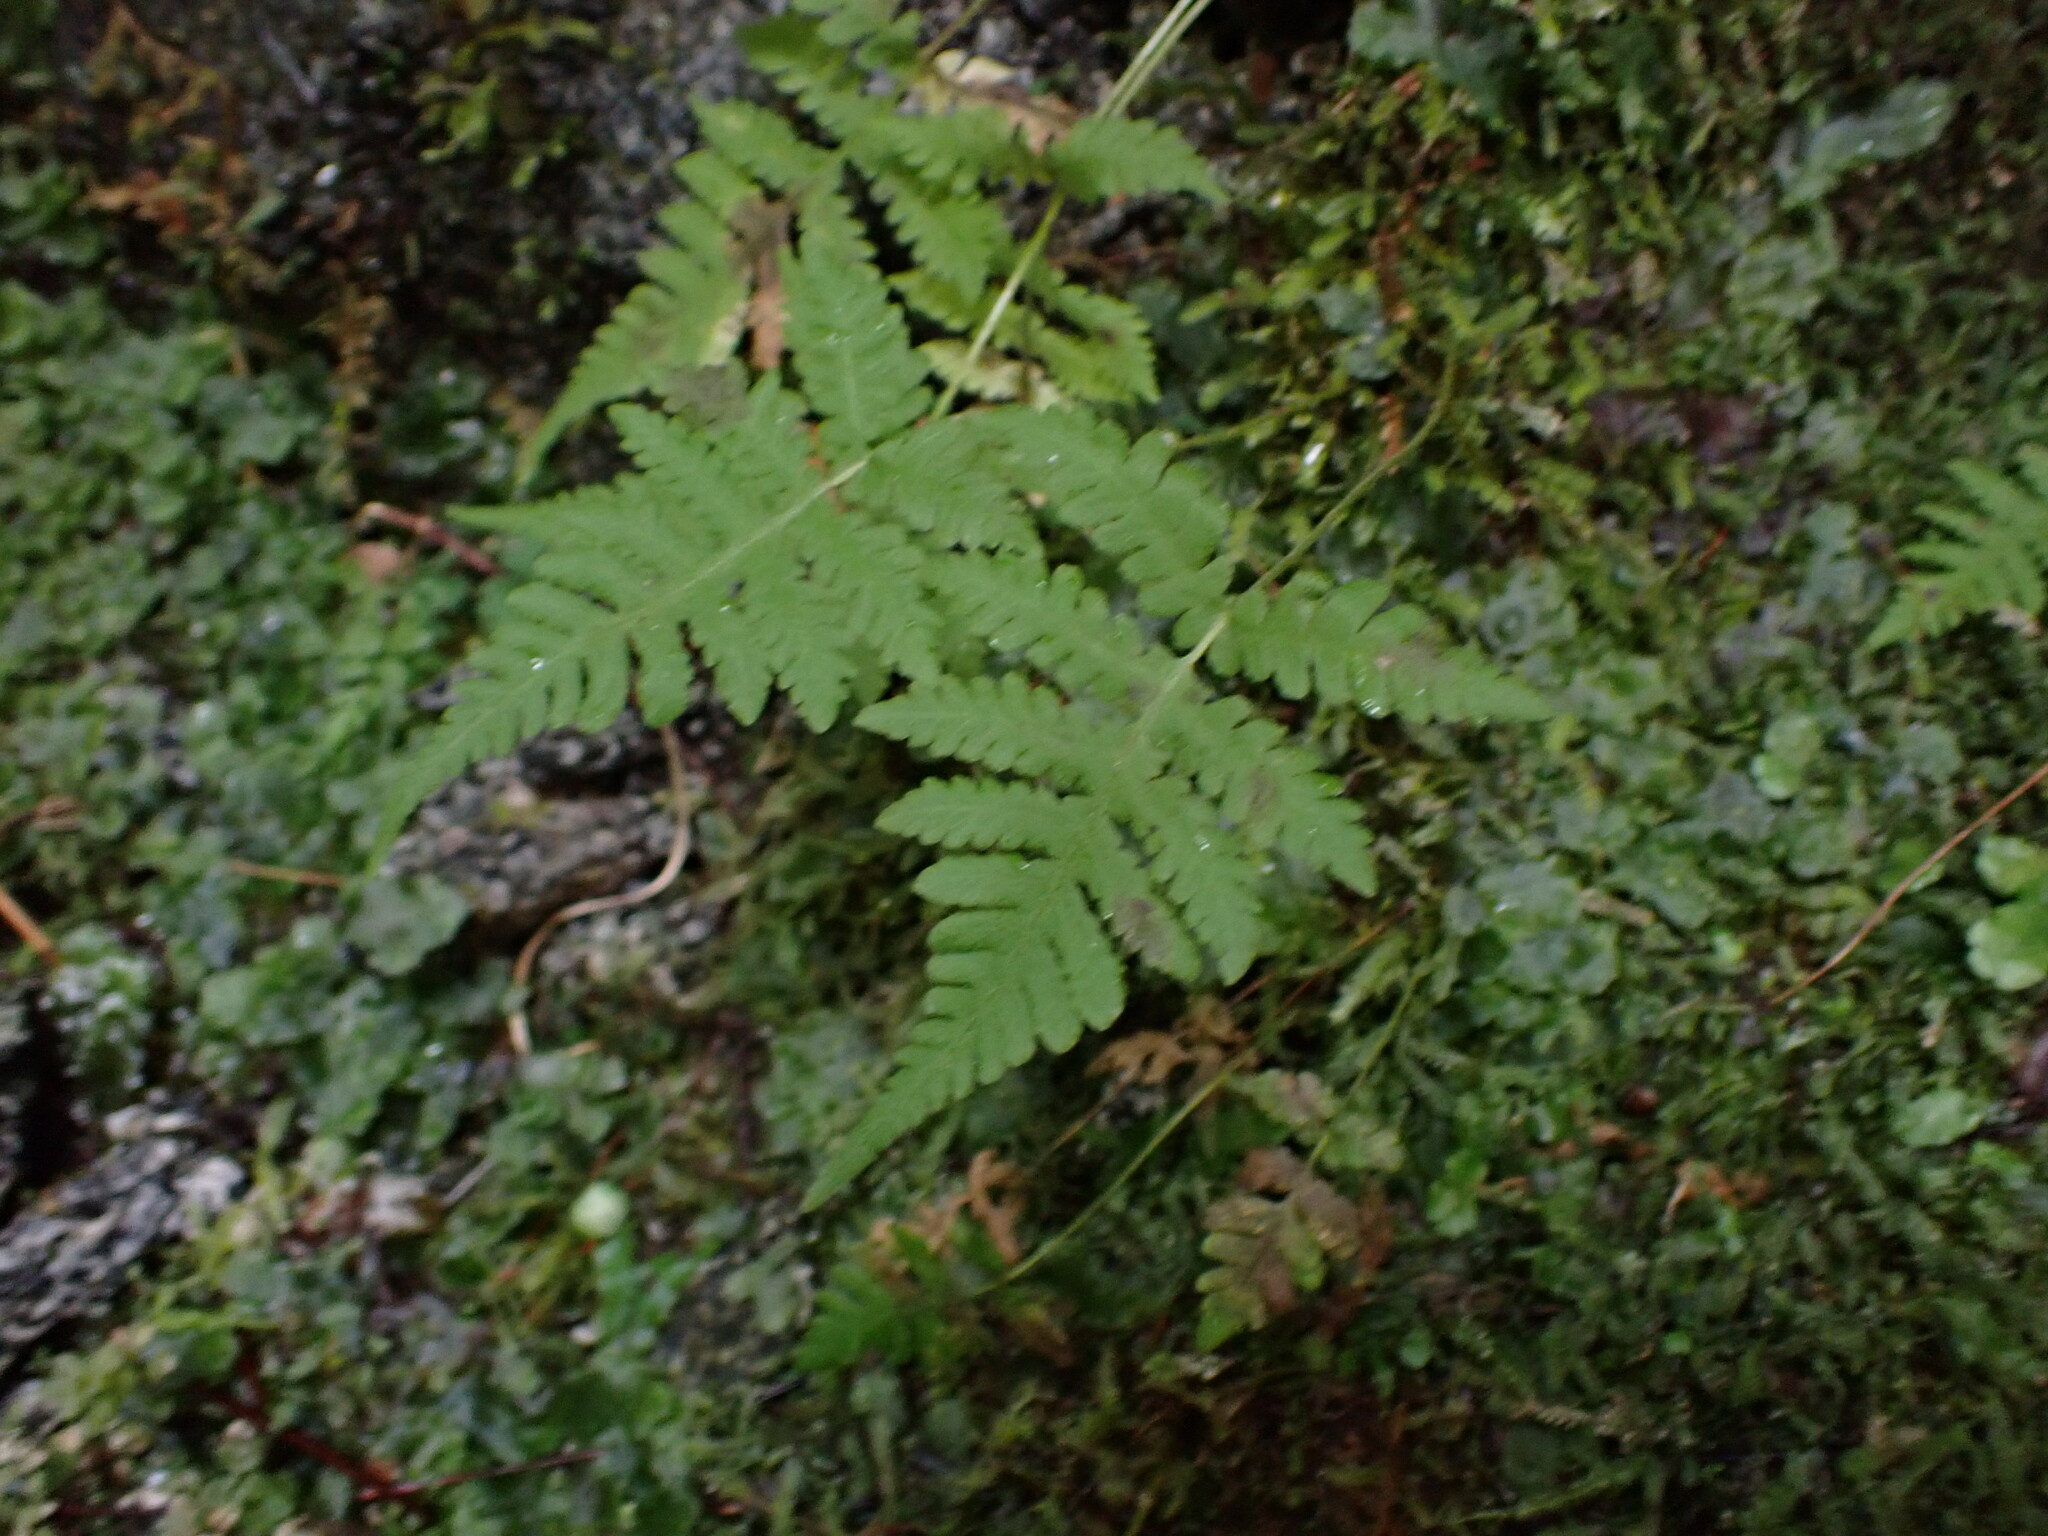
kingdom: Plantae
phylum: Tracheophyta
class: Polypodiopsida
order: Polypodiales
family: Thelypteridaceae
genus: Phegopteris
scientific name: Phegopteris connectilis
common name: Beech fern
